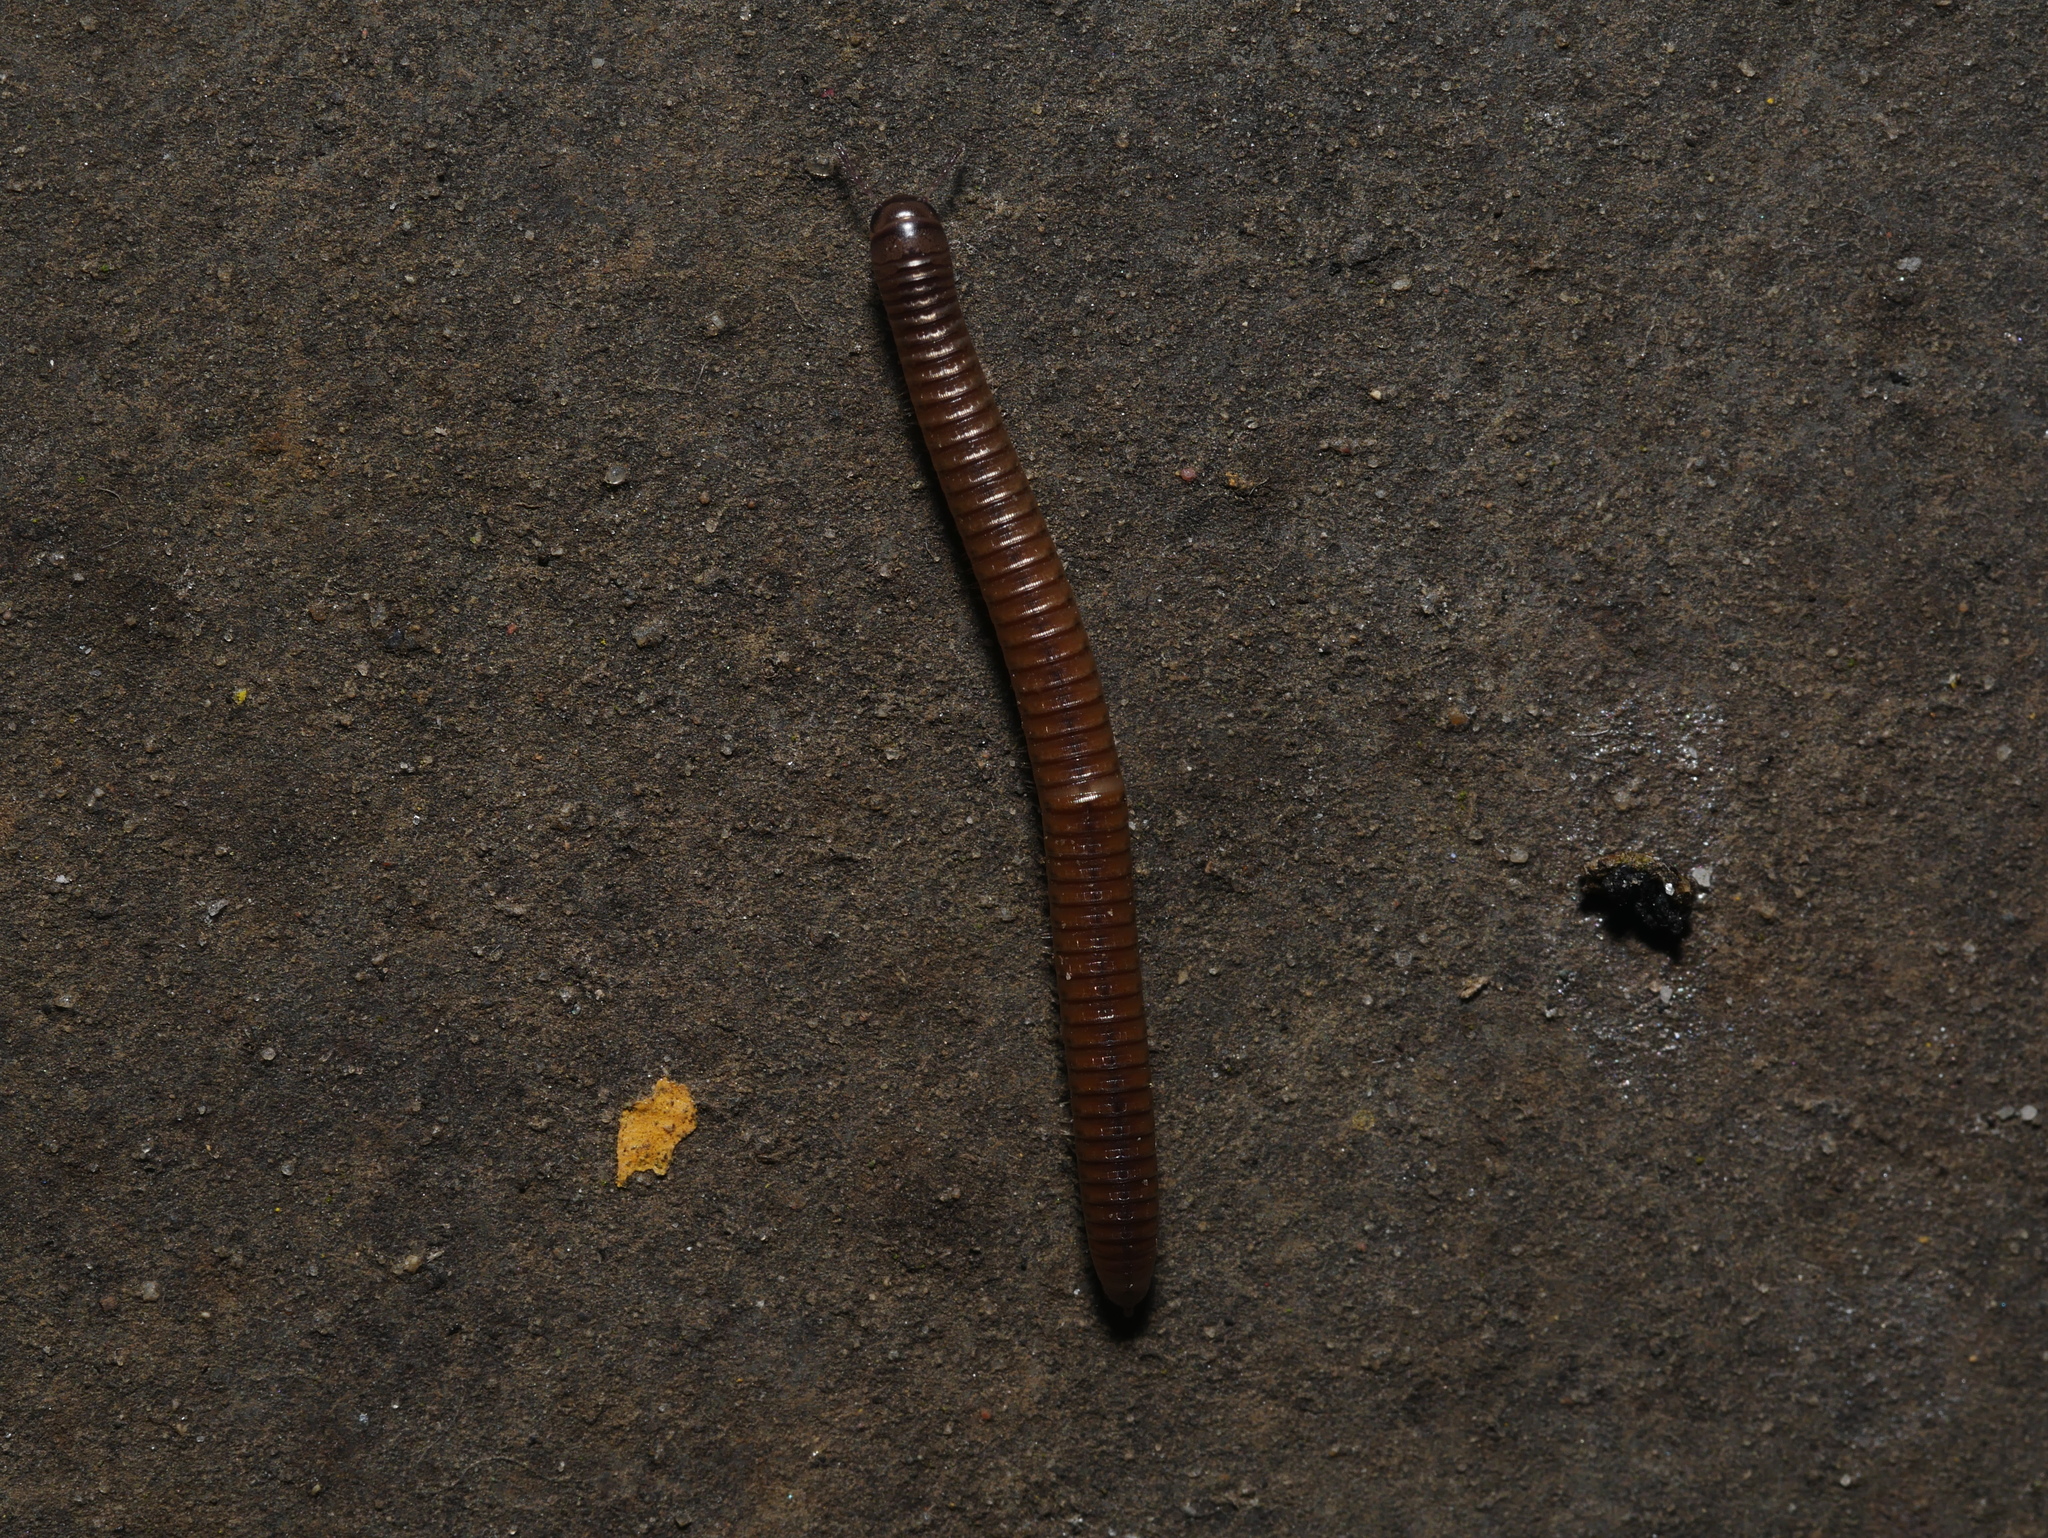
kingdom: Animalia
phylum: Arthropoda
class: Diplopoda
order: Julida
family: Julidae
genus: Cylindroiulus
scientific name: Cylindroiulus punctatus
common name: Blunt-tailed millipede
